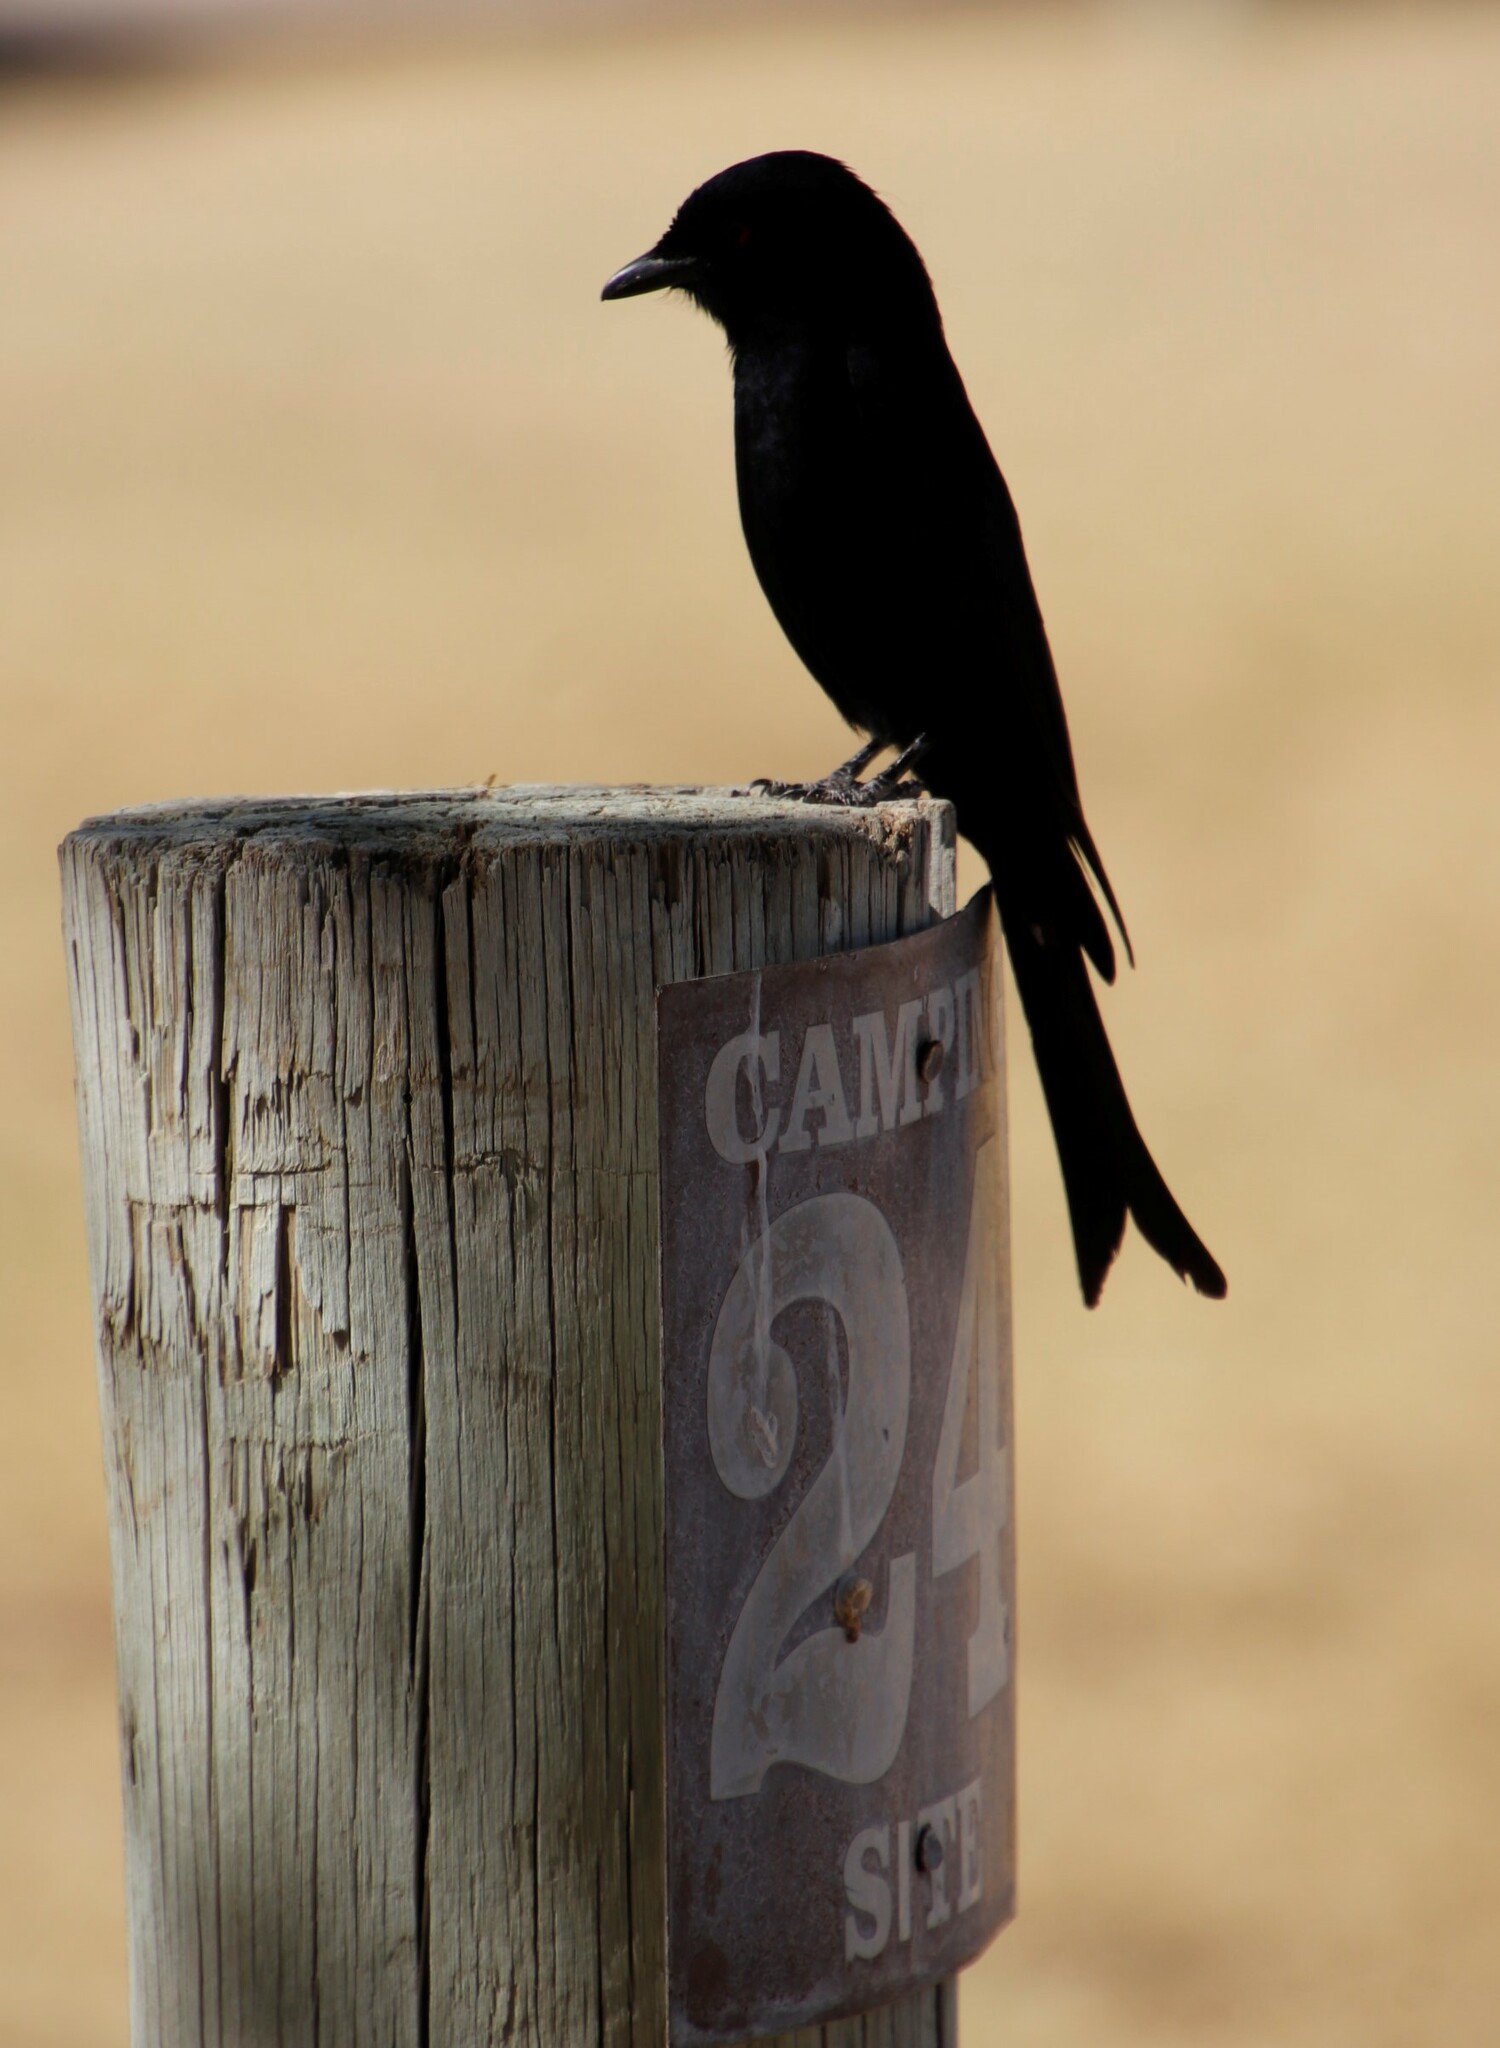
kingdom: Animalia
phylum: Chordata
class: Aves
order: Passeriformes
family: Dicruridae
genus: Dicrurus
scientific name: Dicrurus adsimilis
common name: Fork-tailed drongo
